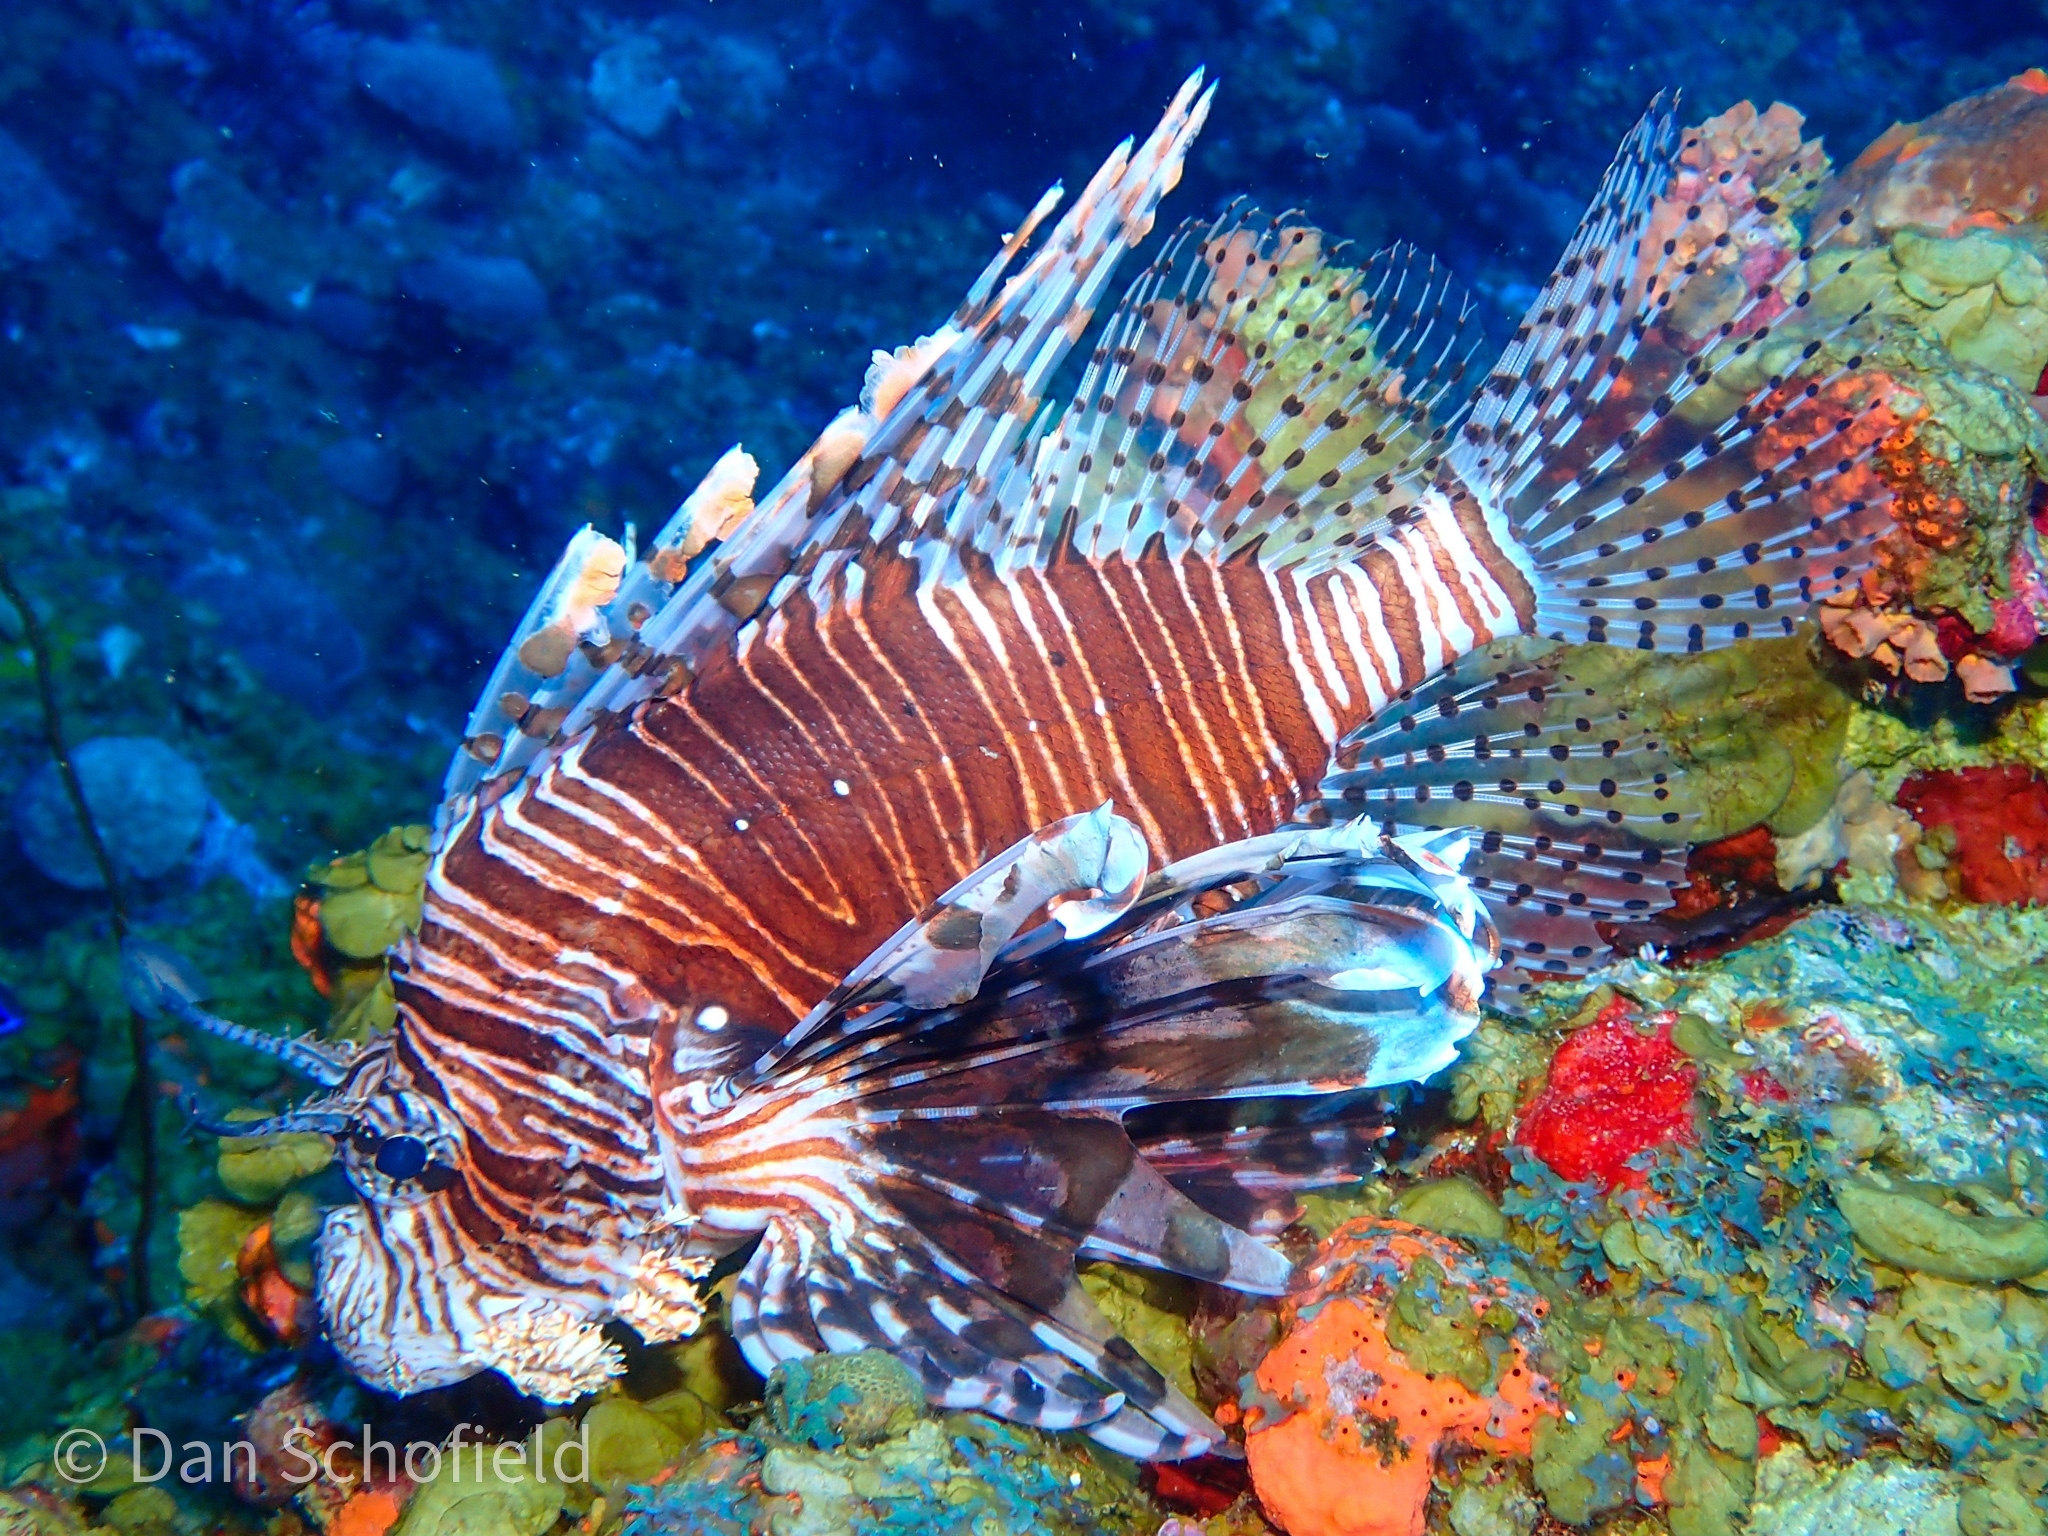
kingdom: Animalia
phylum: Chordata
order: Scorpaeniformes
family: Scorpaenidae
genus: Pterois
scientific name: Pterois volitans
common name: Lionfish
